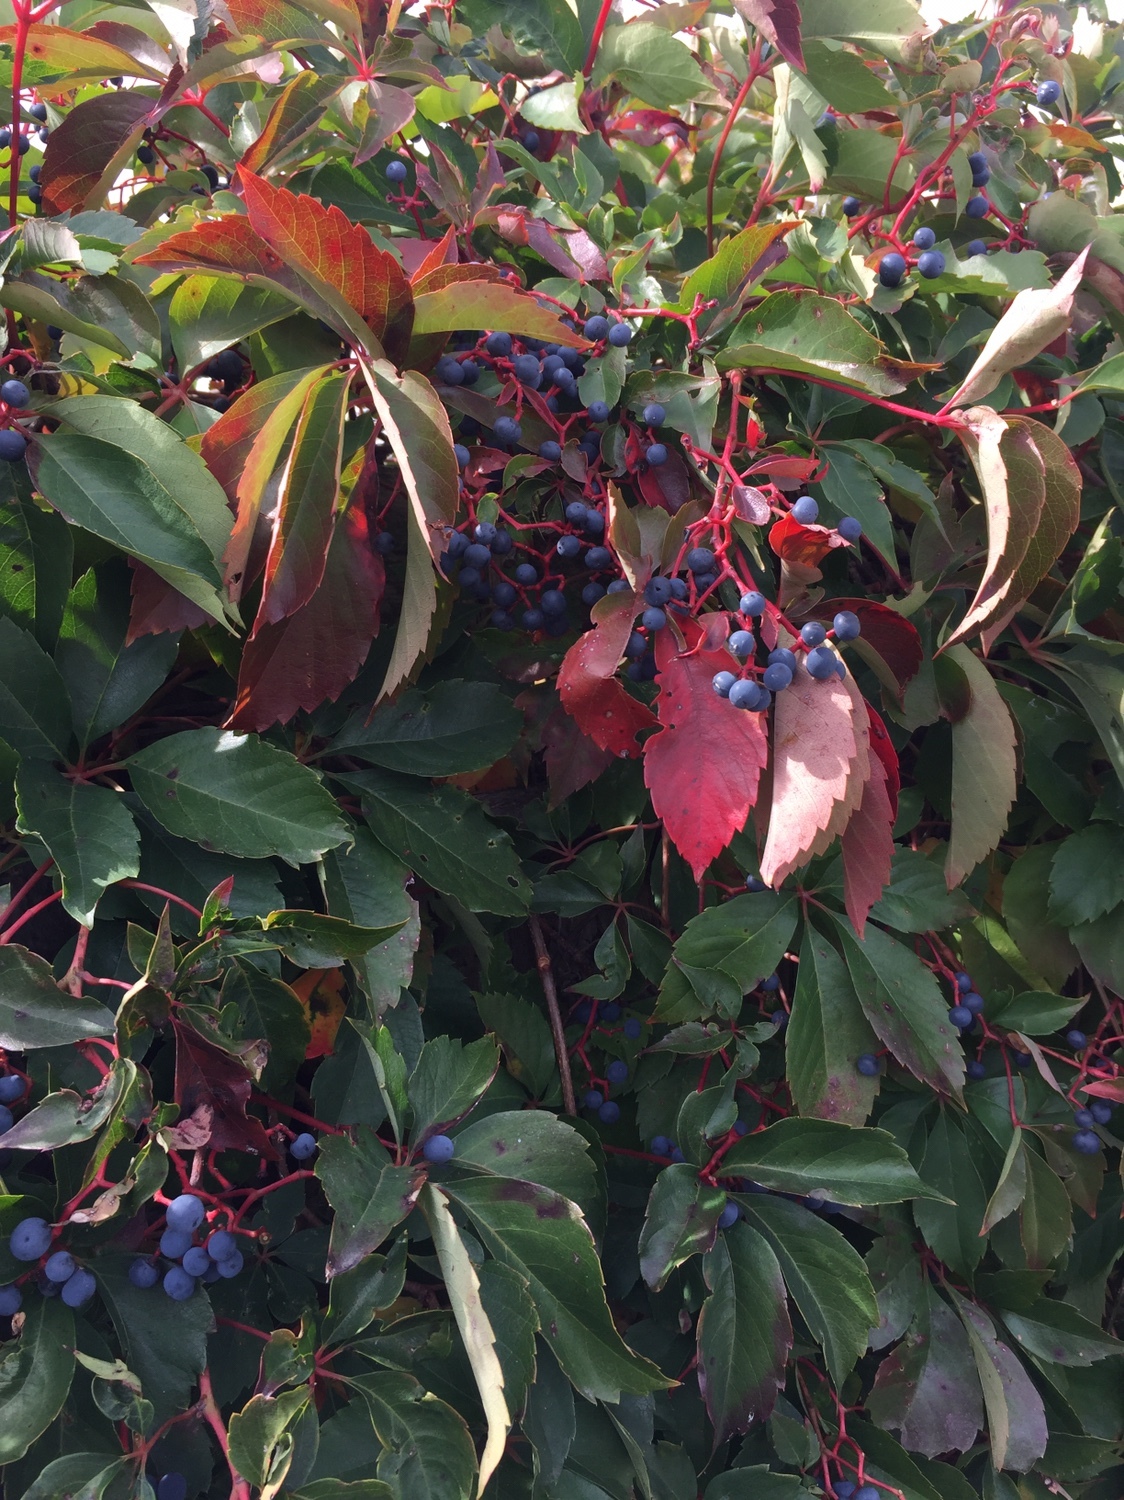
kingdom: Plantae
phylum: Tracheophyta
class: Magnoliopsida
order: Vitales
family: Vitaceae
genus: Parthenocissus
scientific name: Parthenocissus quinquefolia
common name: Virginia-creeper
